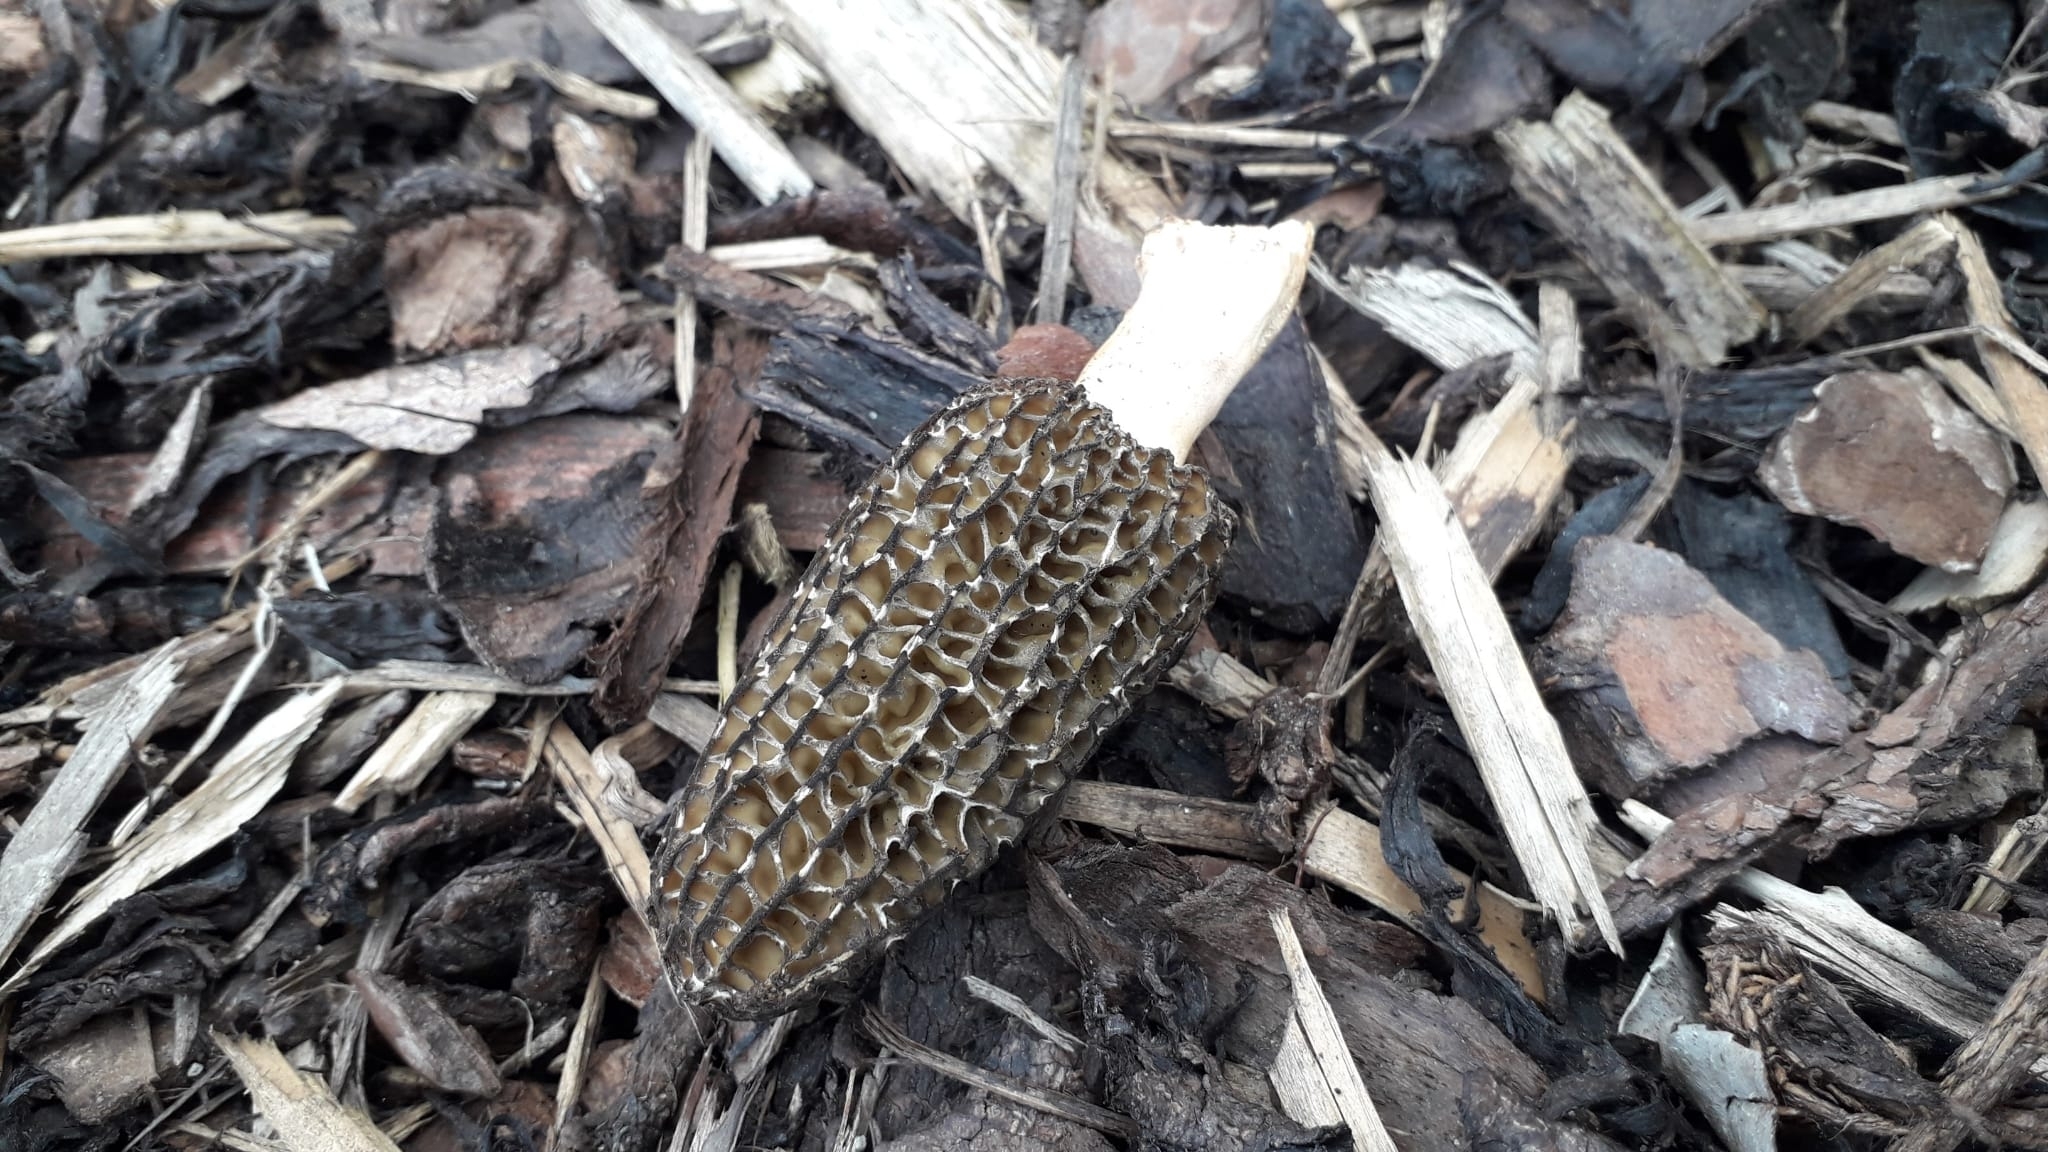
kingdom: Fungi
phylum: Ascomycota
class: Pezizomycetes
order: Pezizales
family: Morchellaceae
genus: Morchella
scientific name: Morchella importuna
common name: Landscaping black morel
